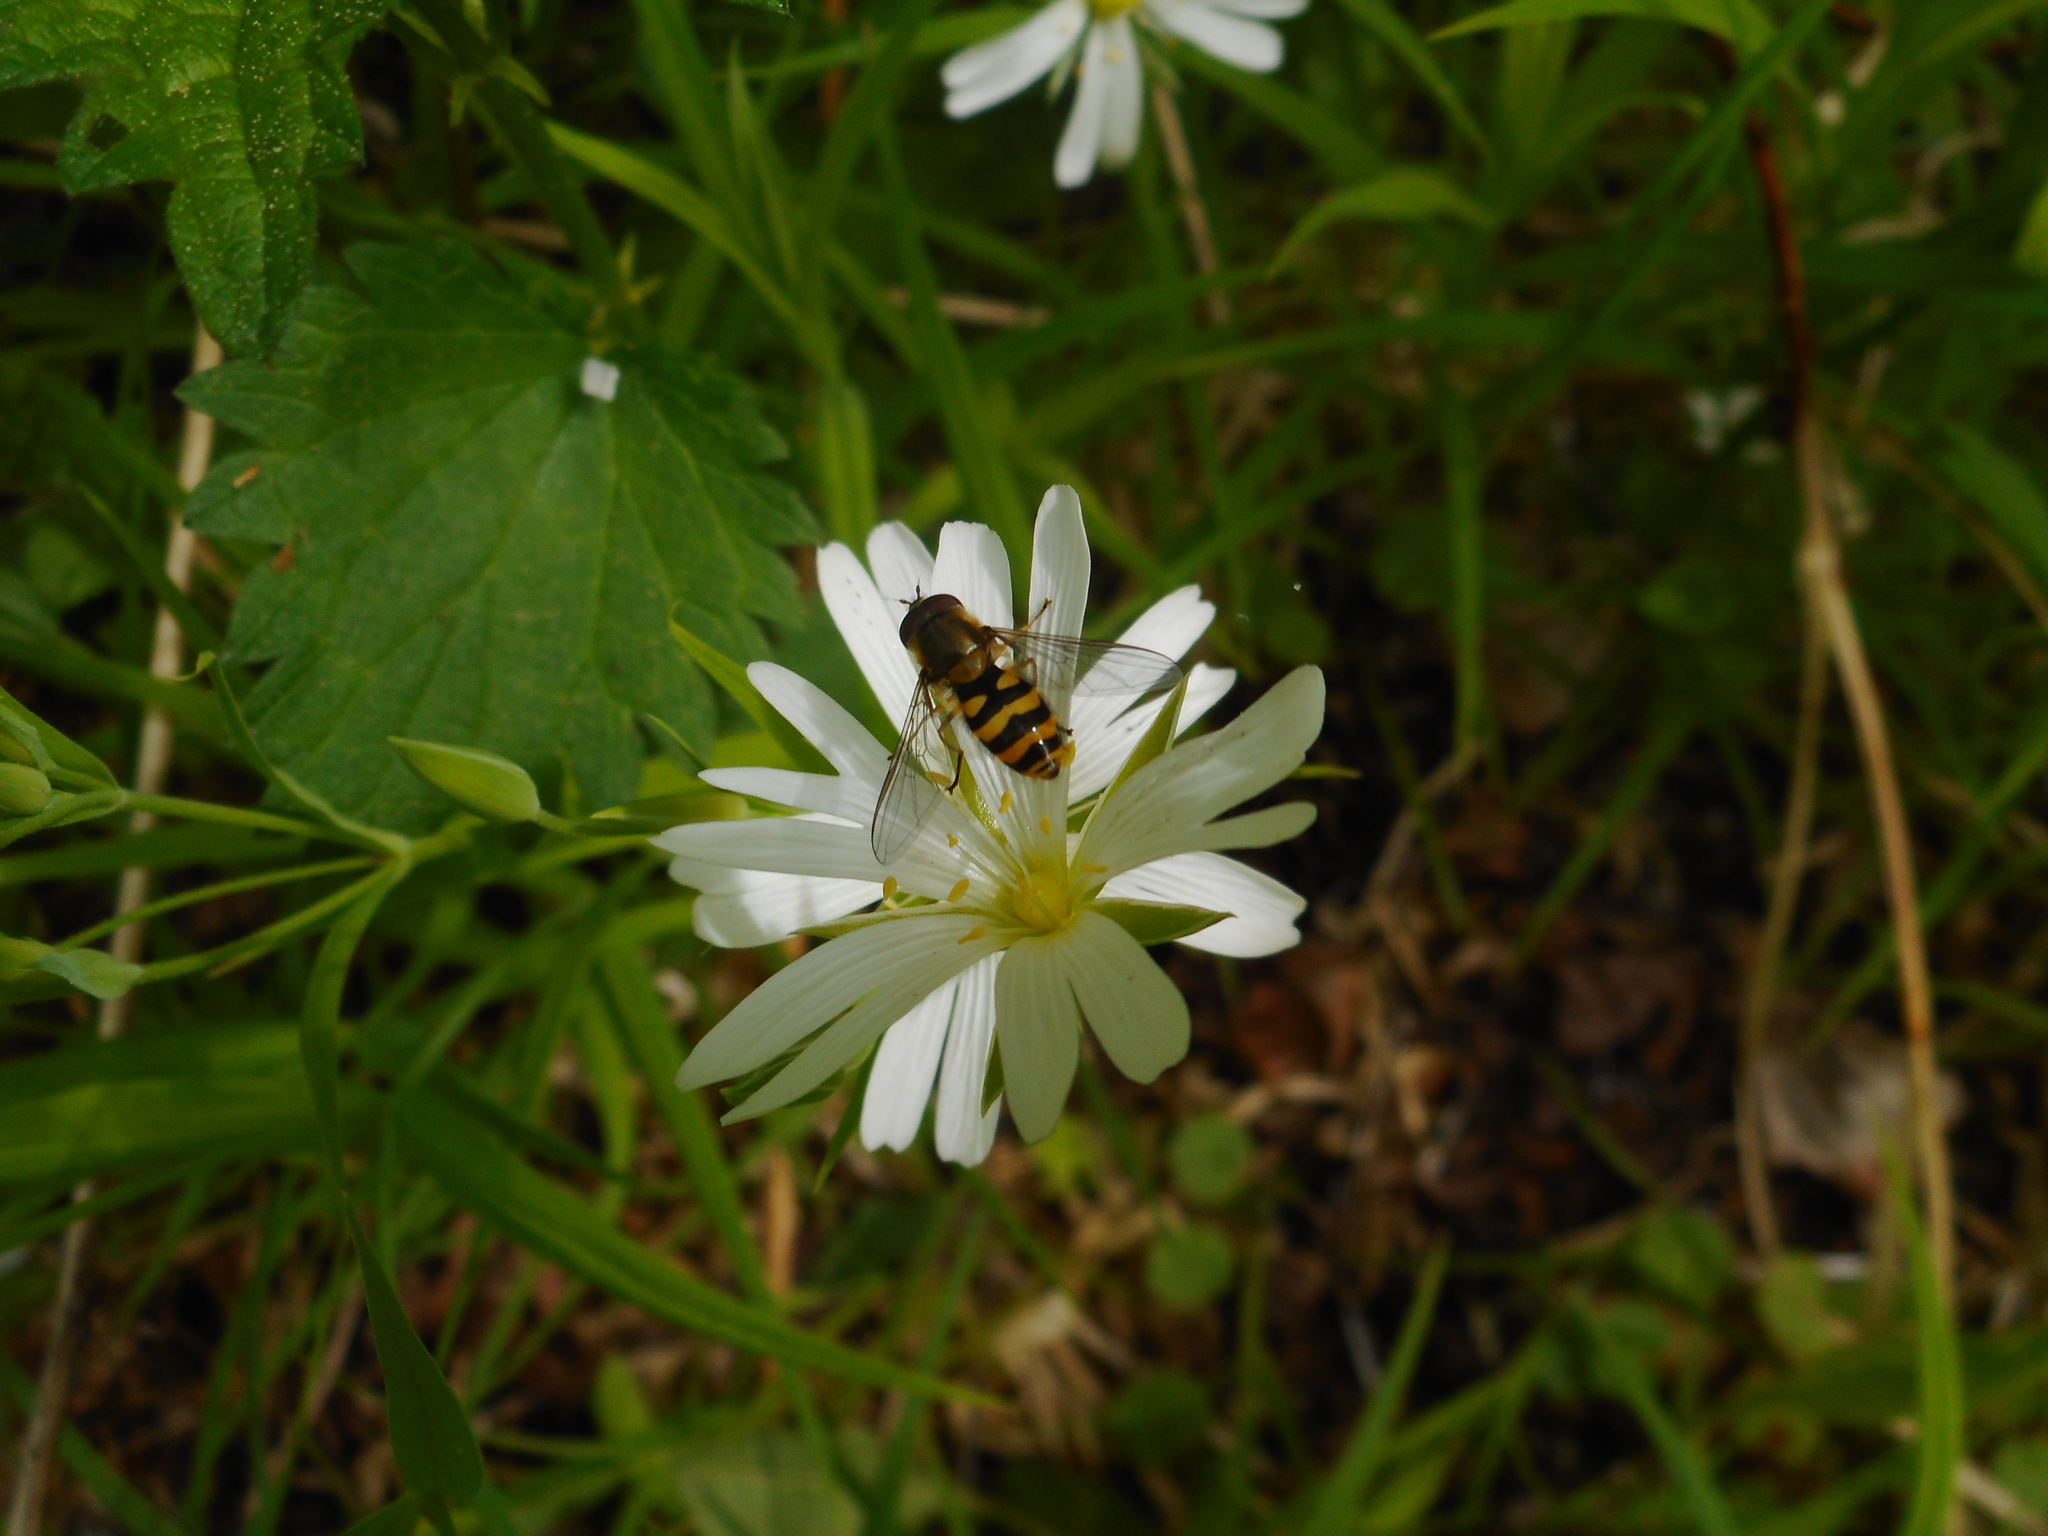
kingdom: Animalia
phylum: Arthropoda
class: Insecta
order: Diptera
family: Syrphidae
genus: Syrphus
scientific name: Syrphus
